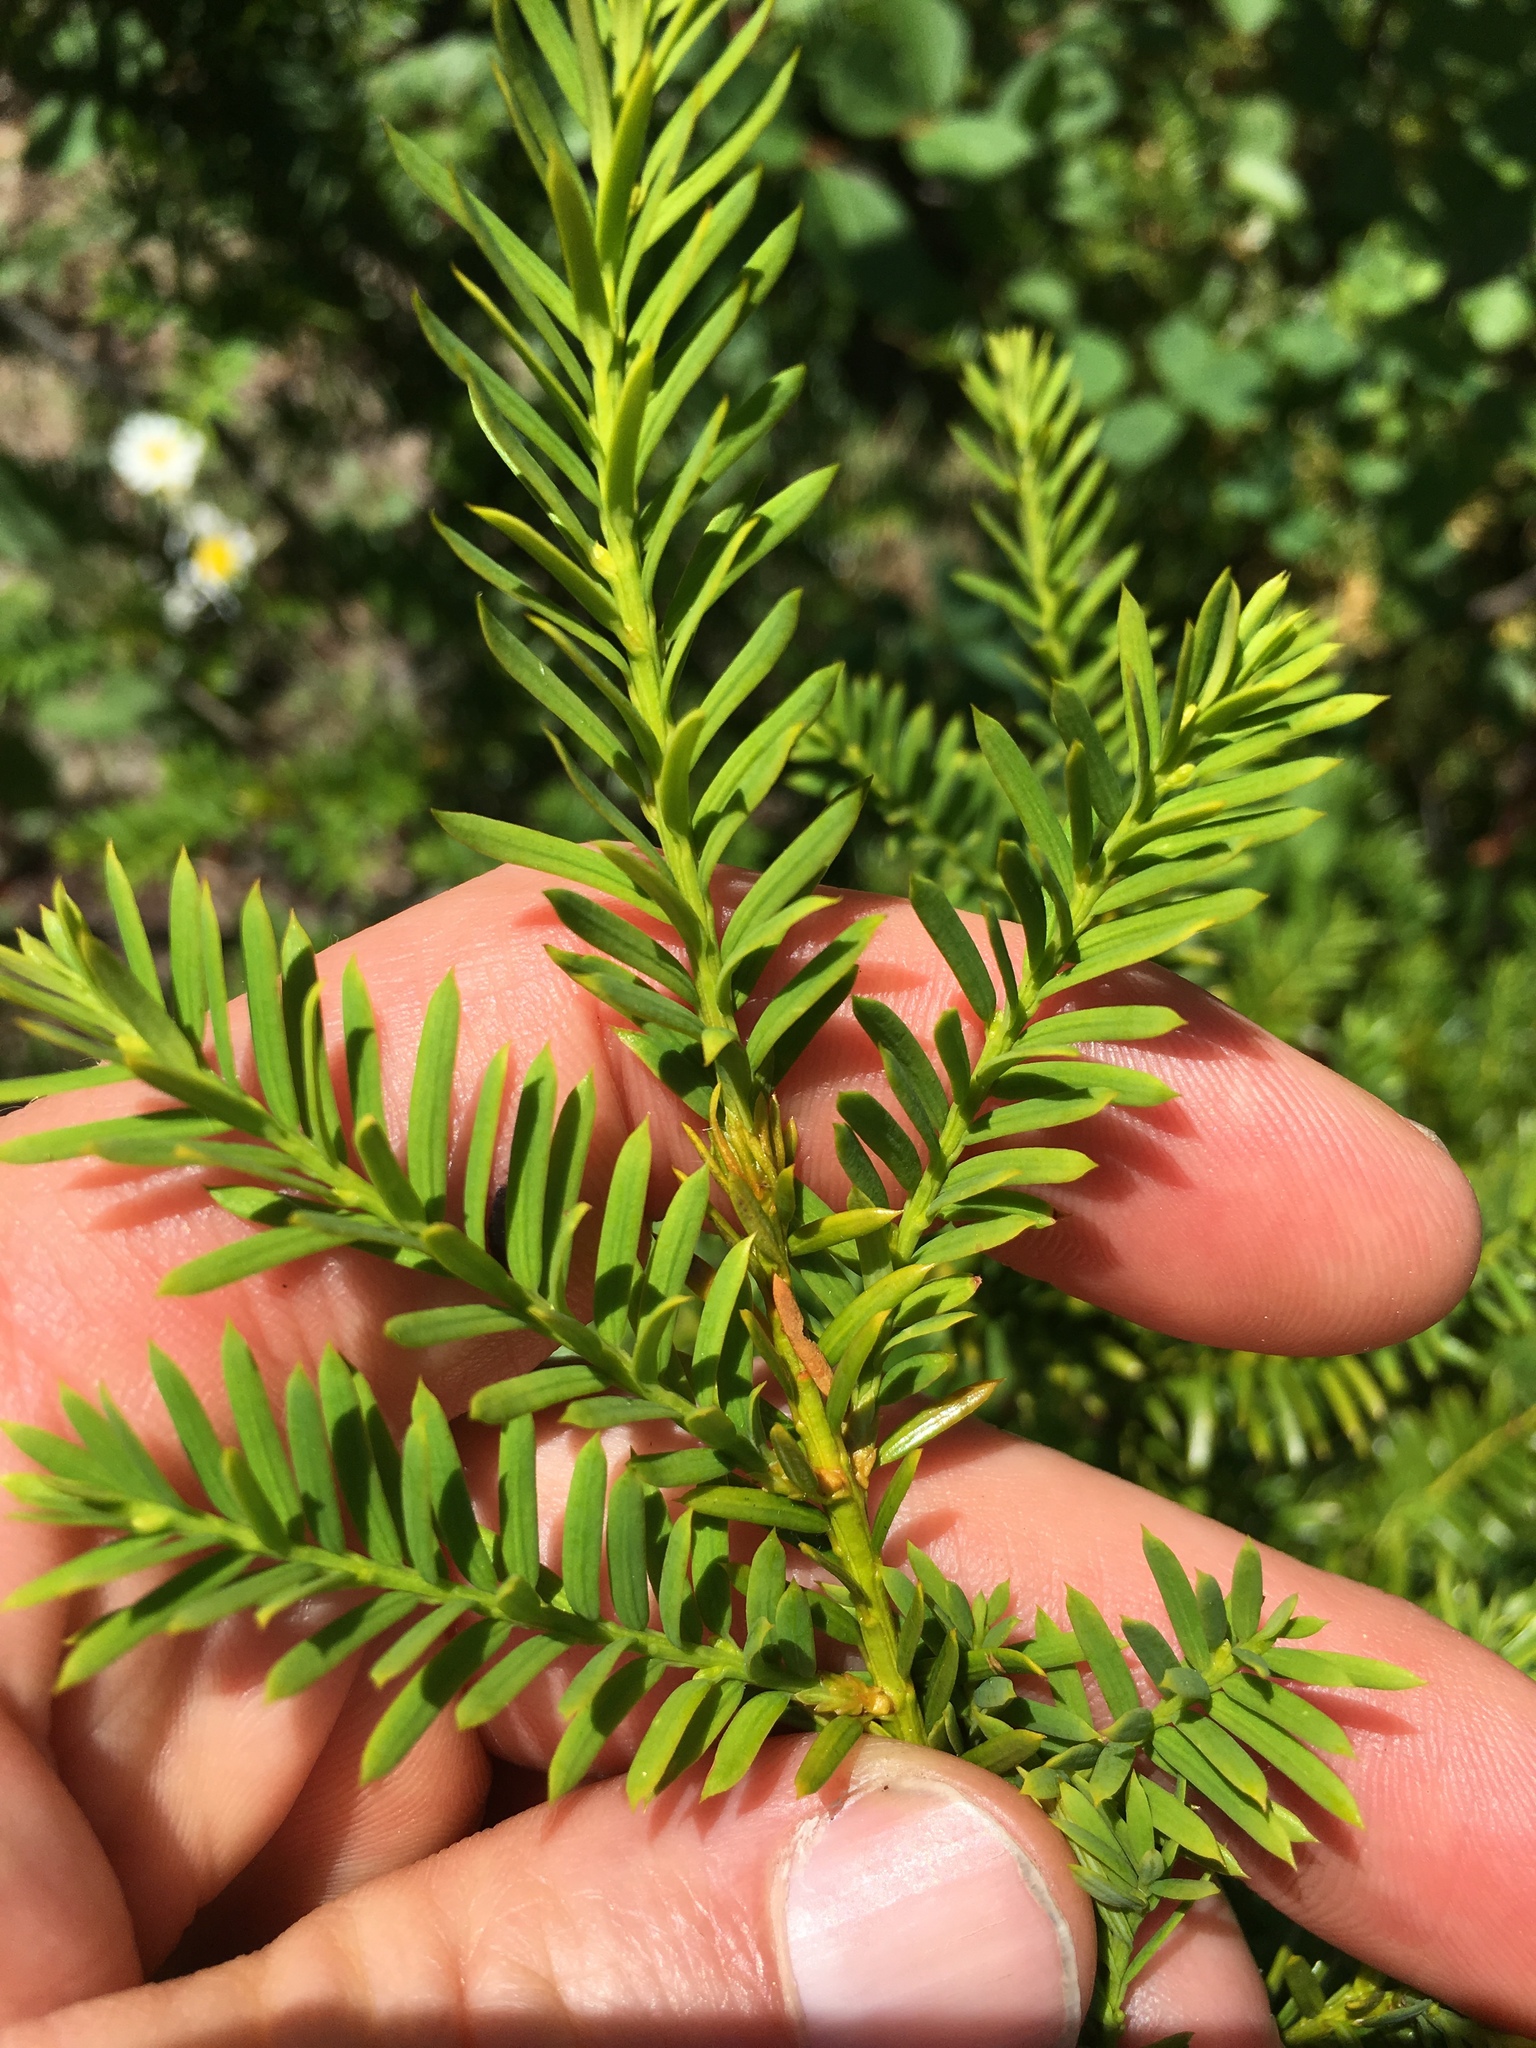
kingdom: Plantae
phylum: Tracheophyta
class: Pinopsida
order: Pinales
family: Taxaceae
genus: Taxus
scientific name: Taxus canadensis
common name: American yew
